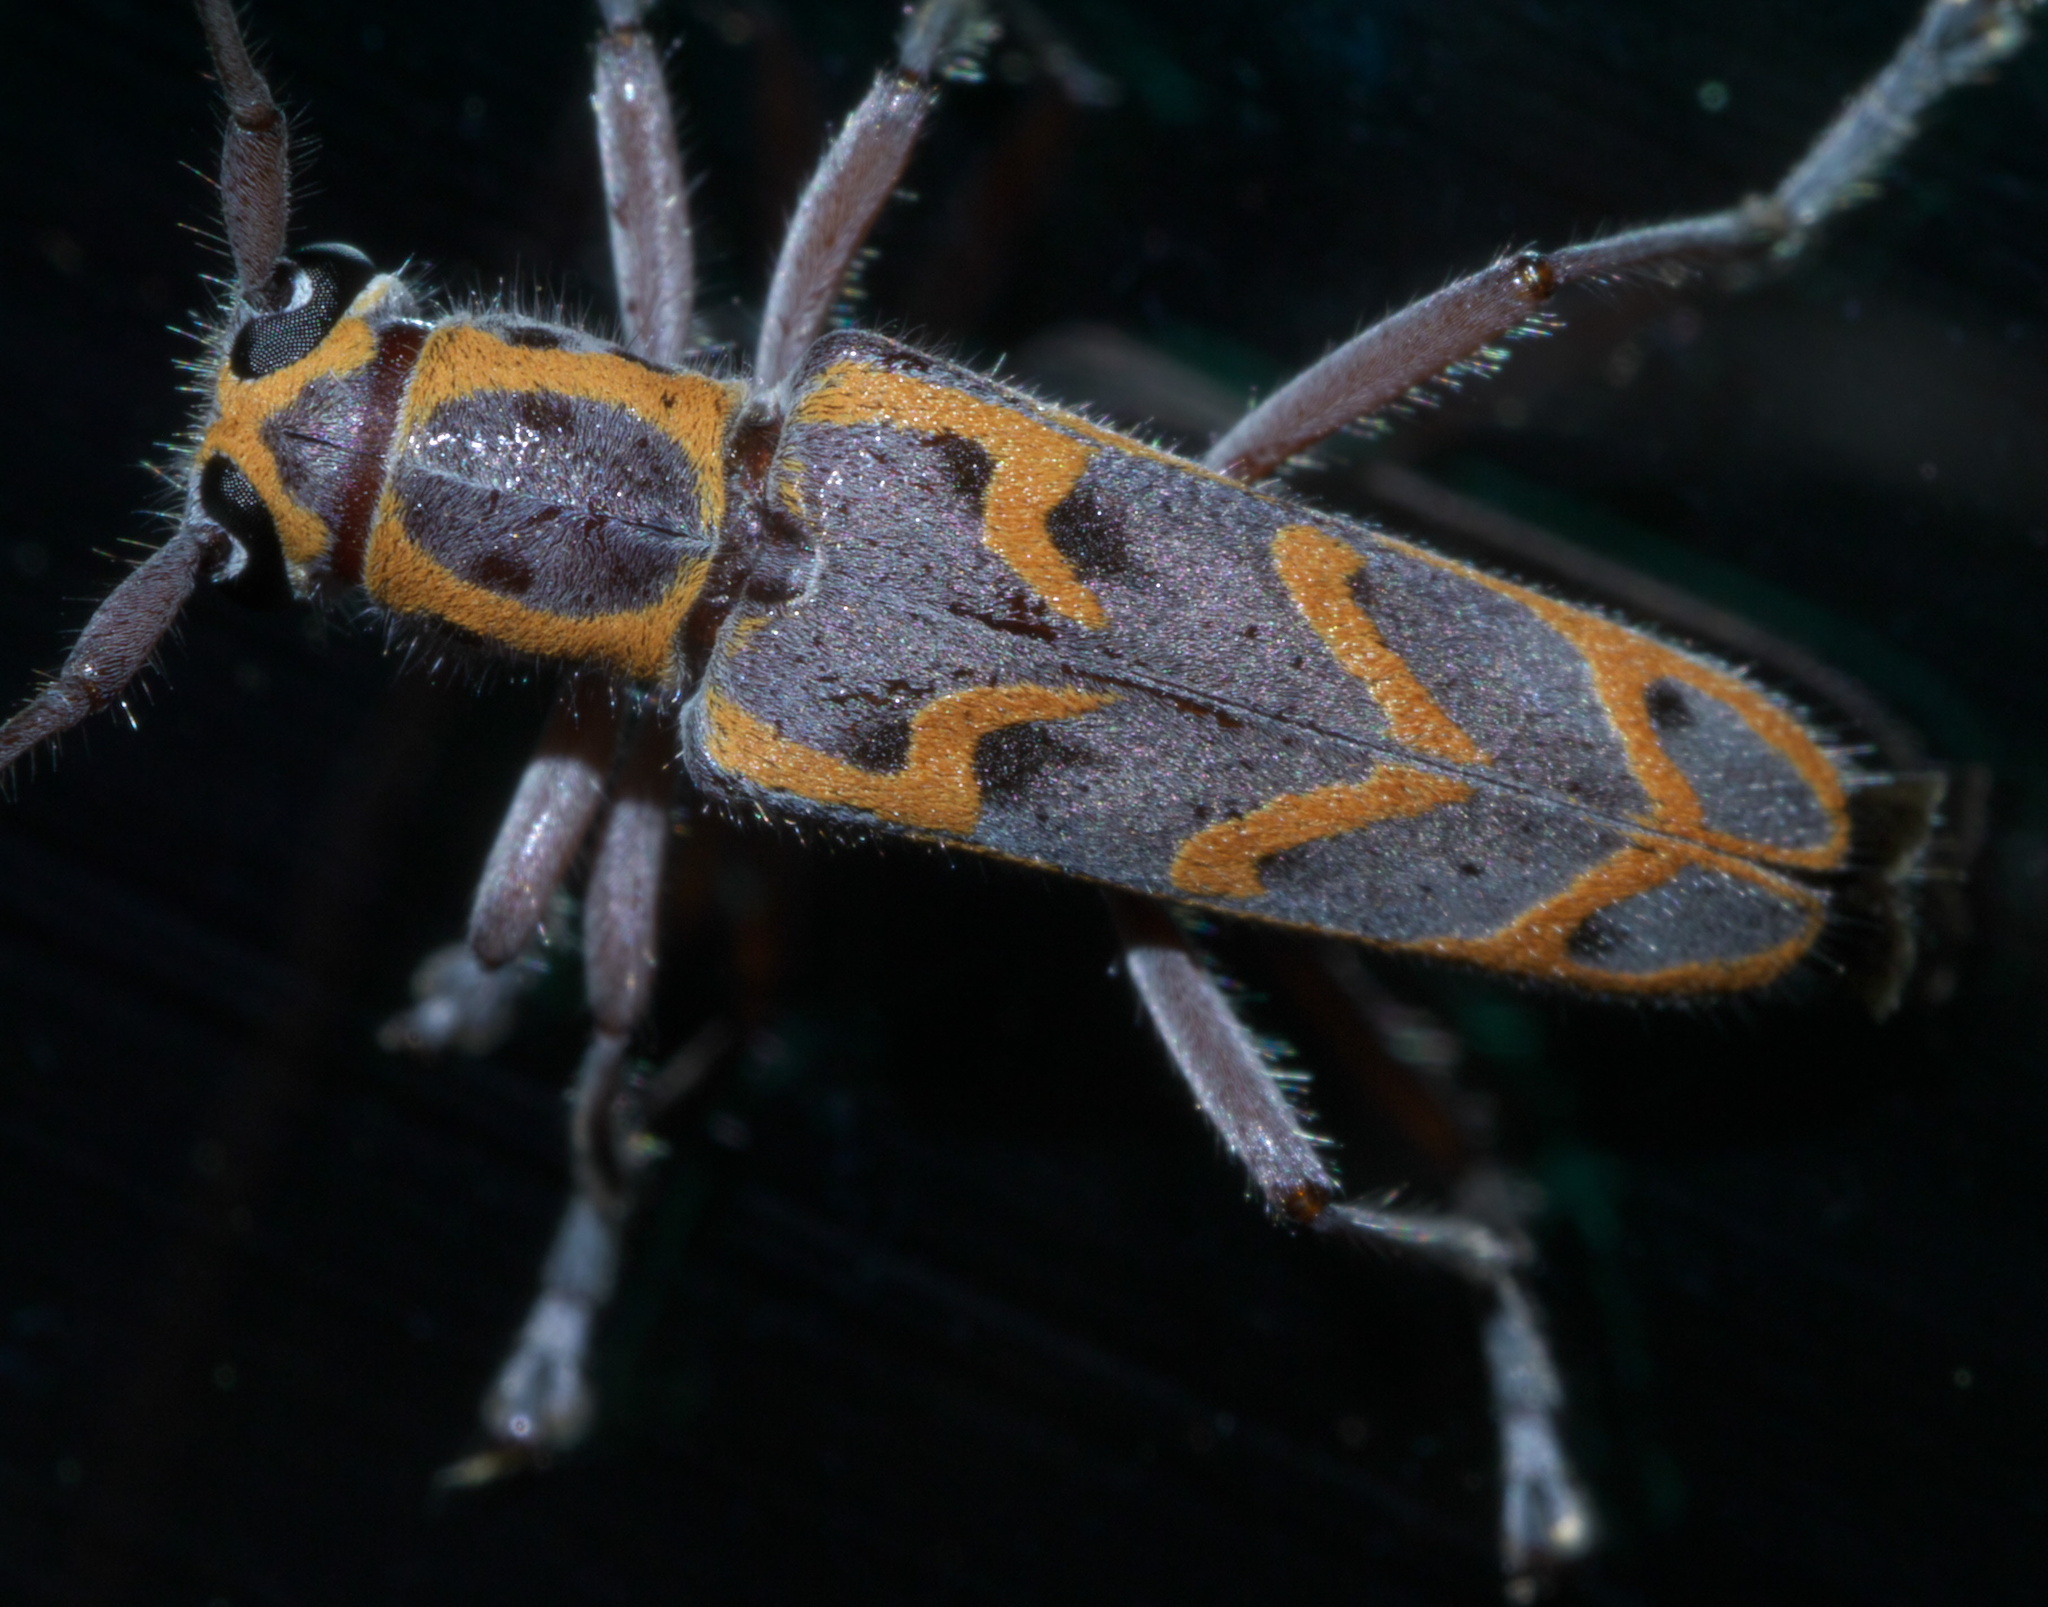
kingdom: Animalia
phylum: Arthropoda
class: Insecta
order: Coleoptera
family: Cerambycidae
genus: Saperda
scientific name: Saperda tridentata
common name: Elm borer
